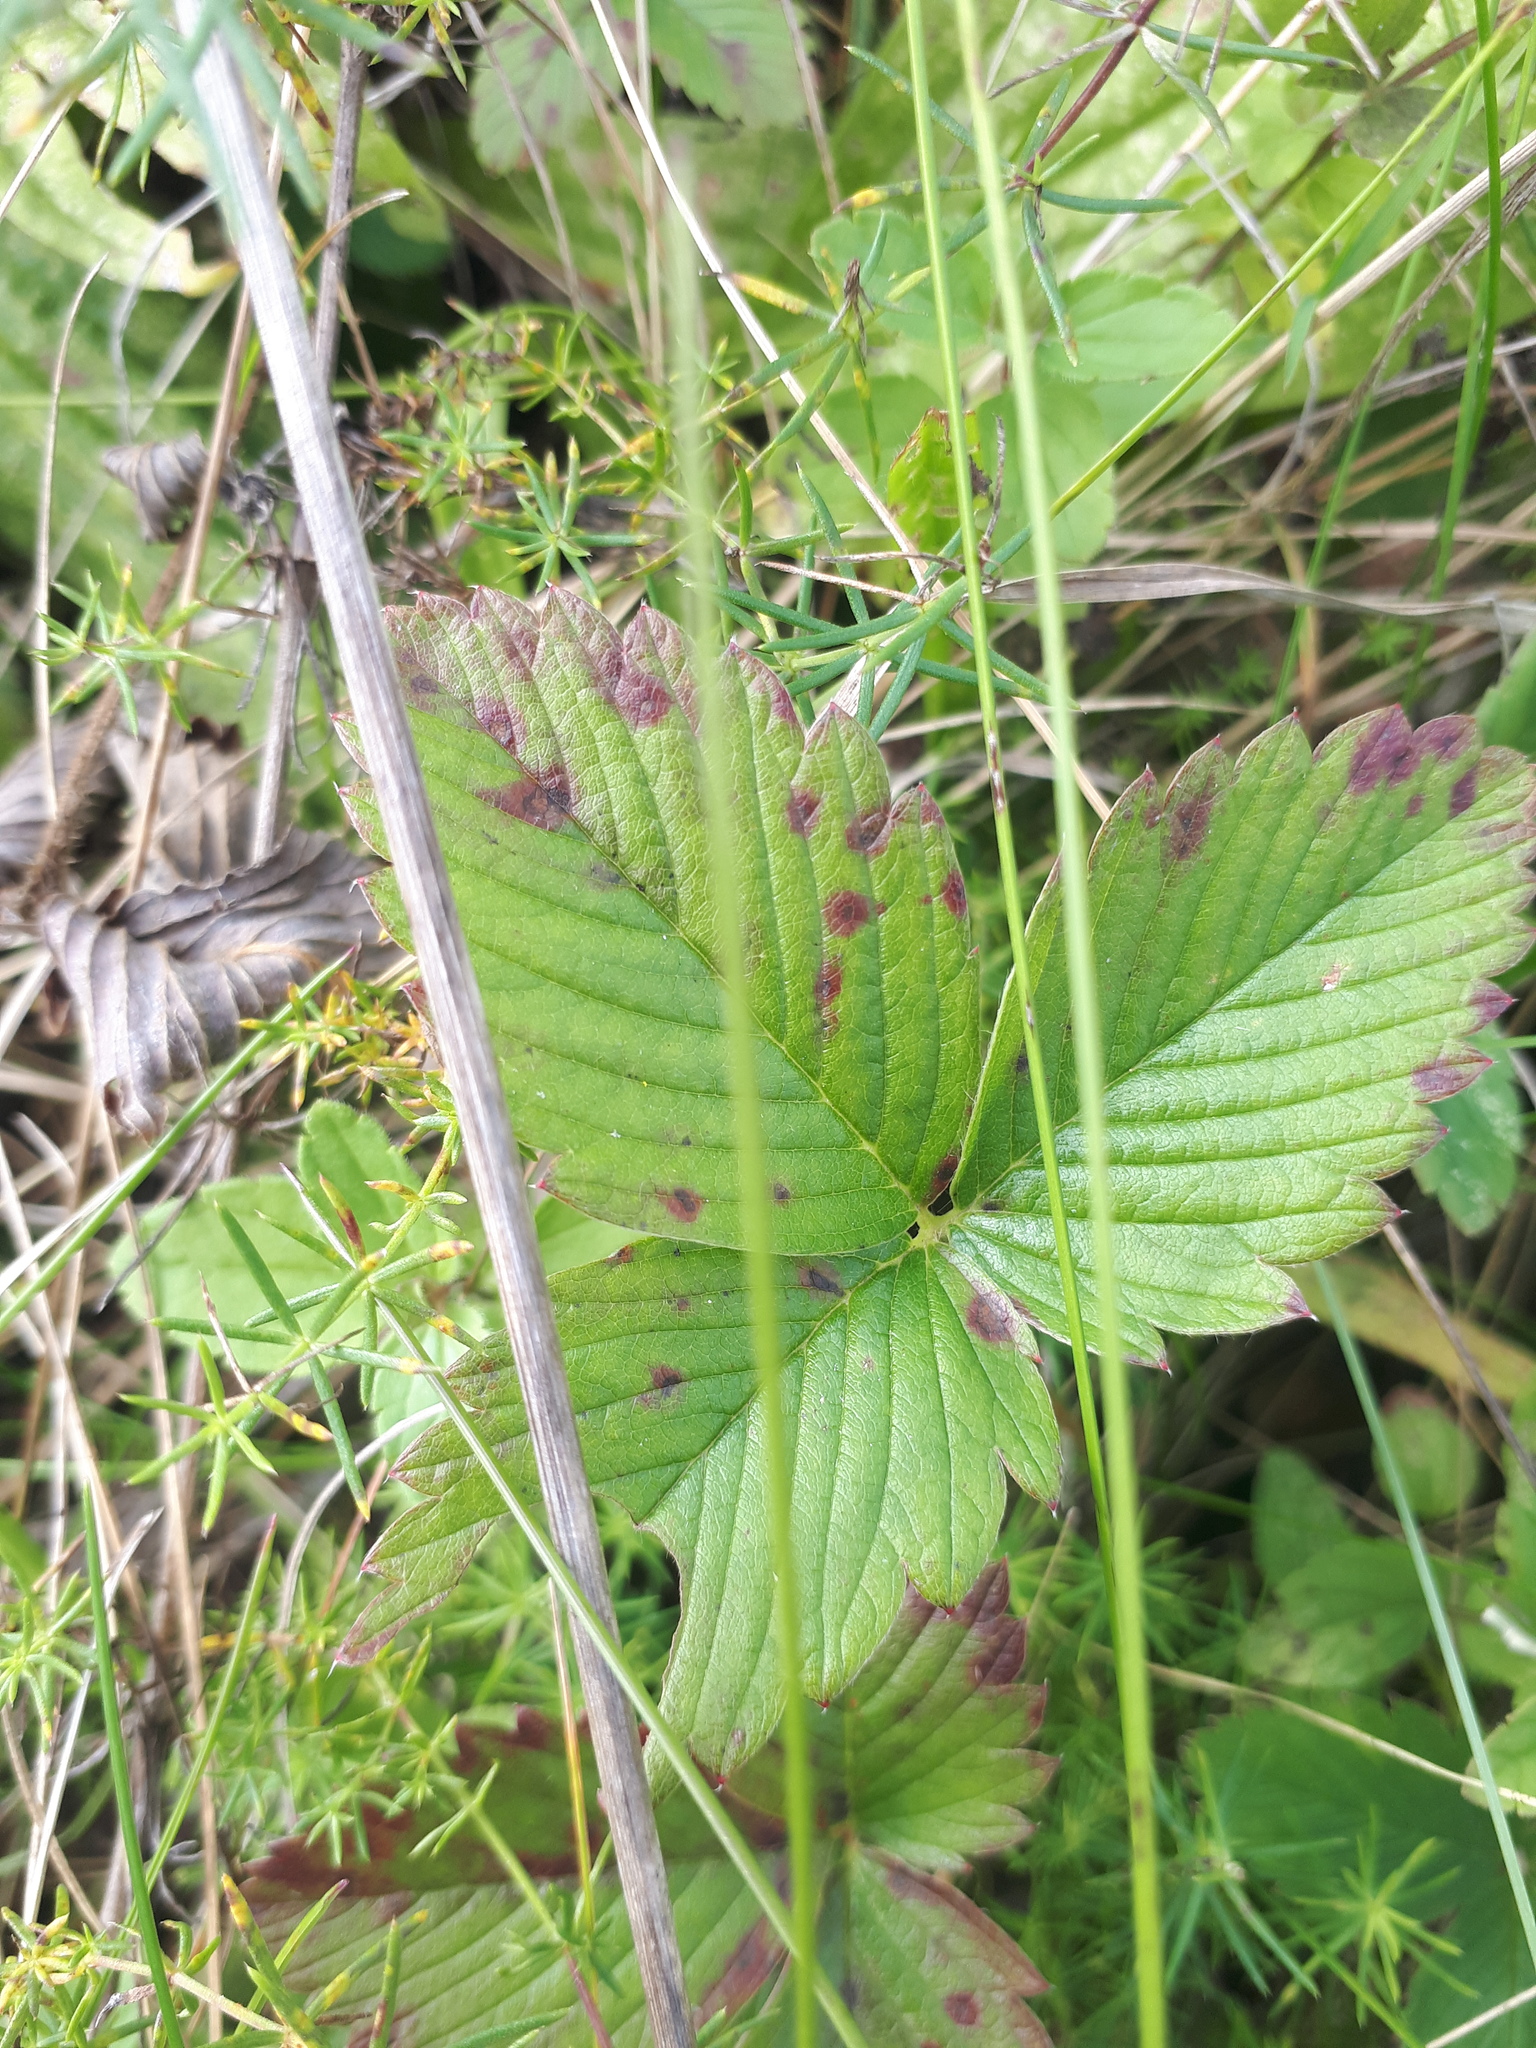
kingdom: Plantae
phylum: Tracheophyta
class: Magnoliopsida
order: Rosales
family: Rosaceae
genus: Fragaria
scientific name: Fragaria vesca
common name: Wild strawberry
